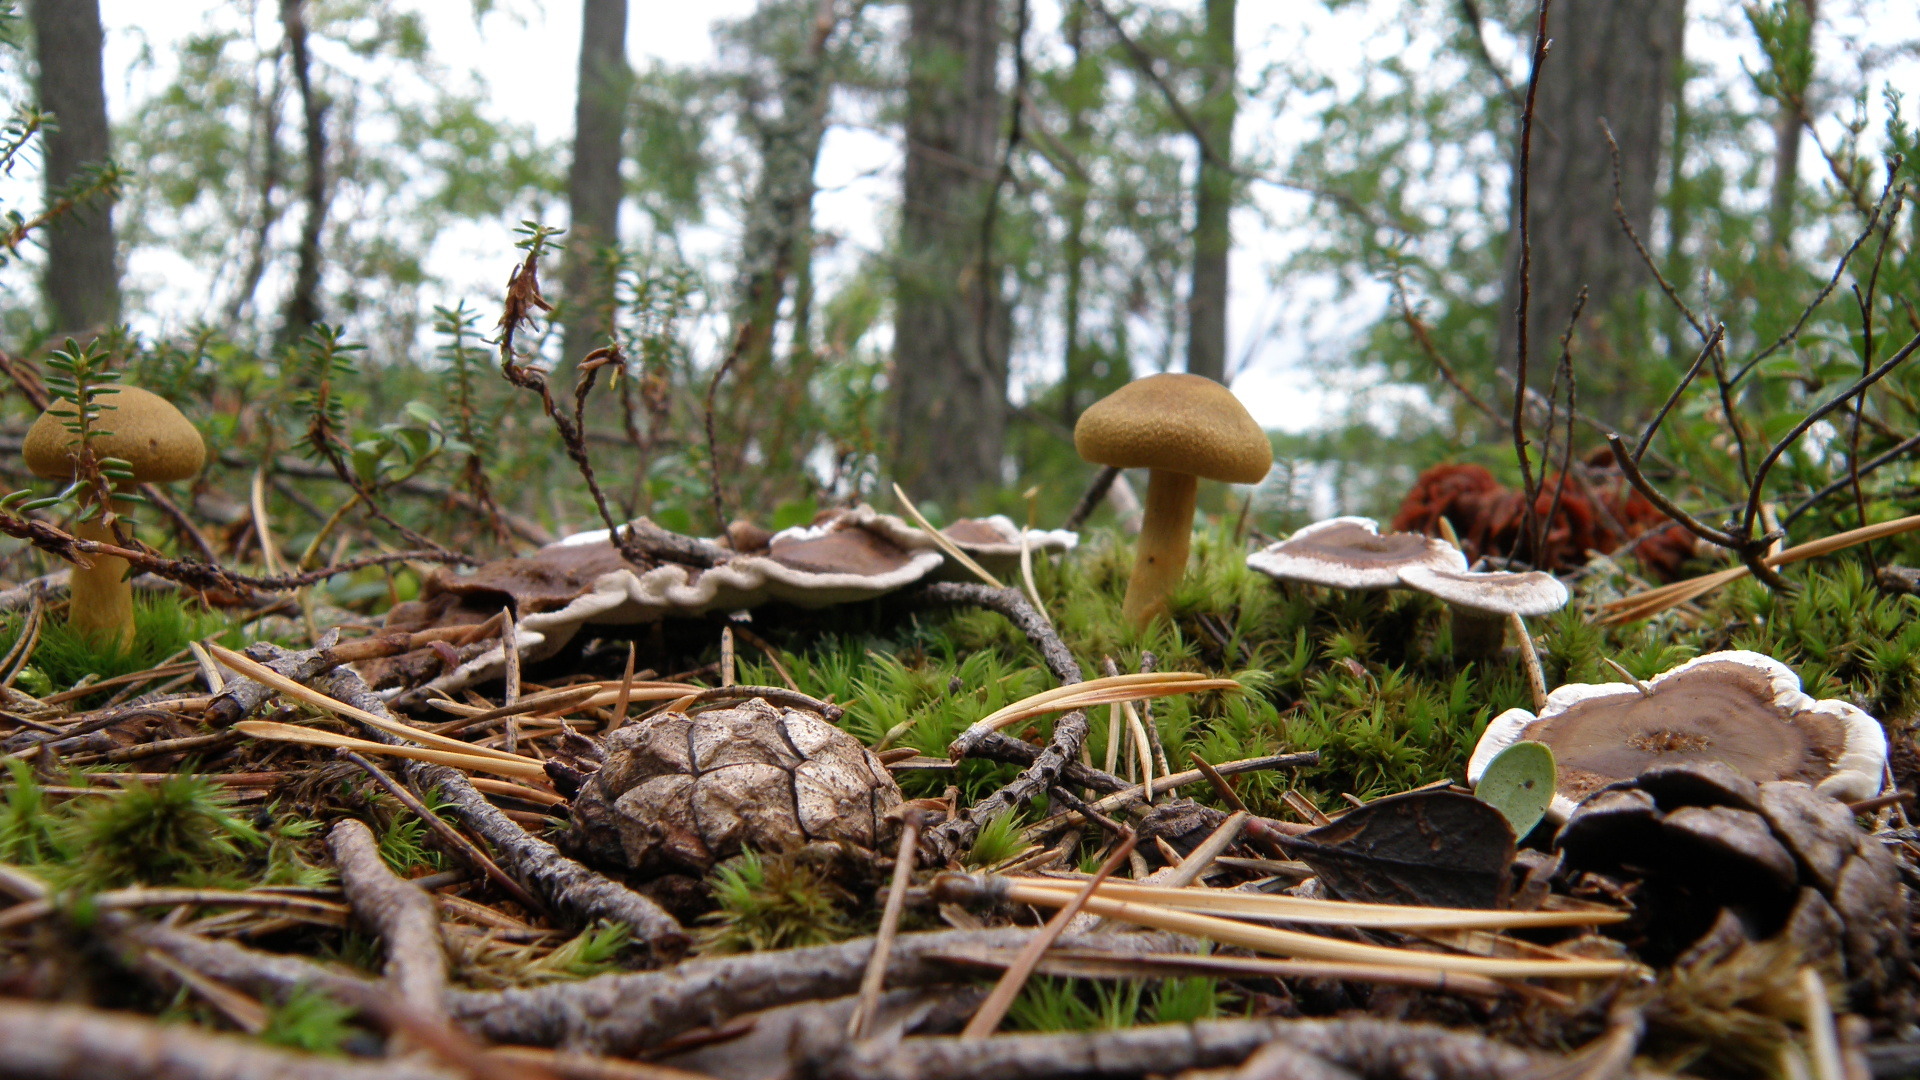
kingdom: Fungi
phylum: Basidiomycota
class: Agaricomycetes
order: Thelephorales
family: Thelephoraceae
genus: Phellodon
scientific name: Phellodon tomentosus
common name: Woolly tooth
